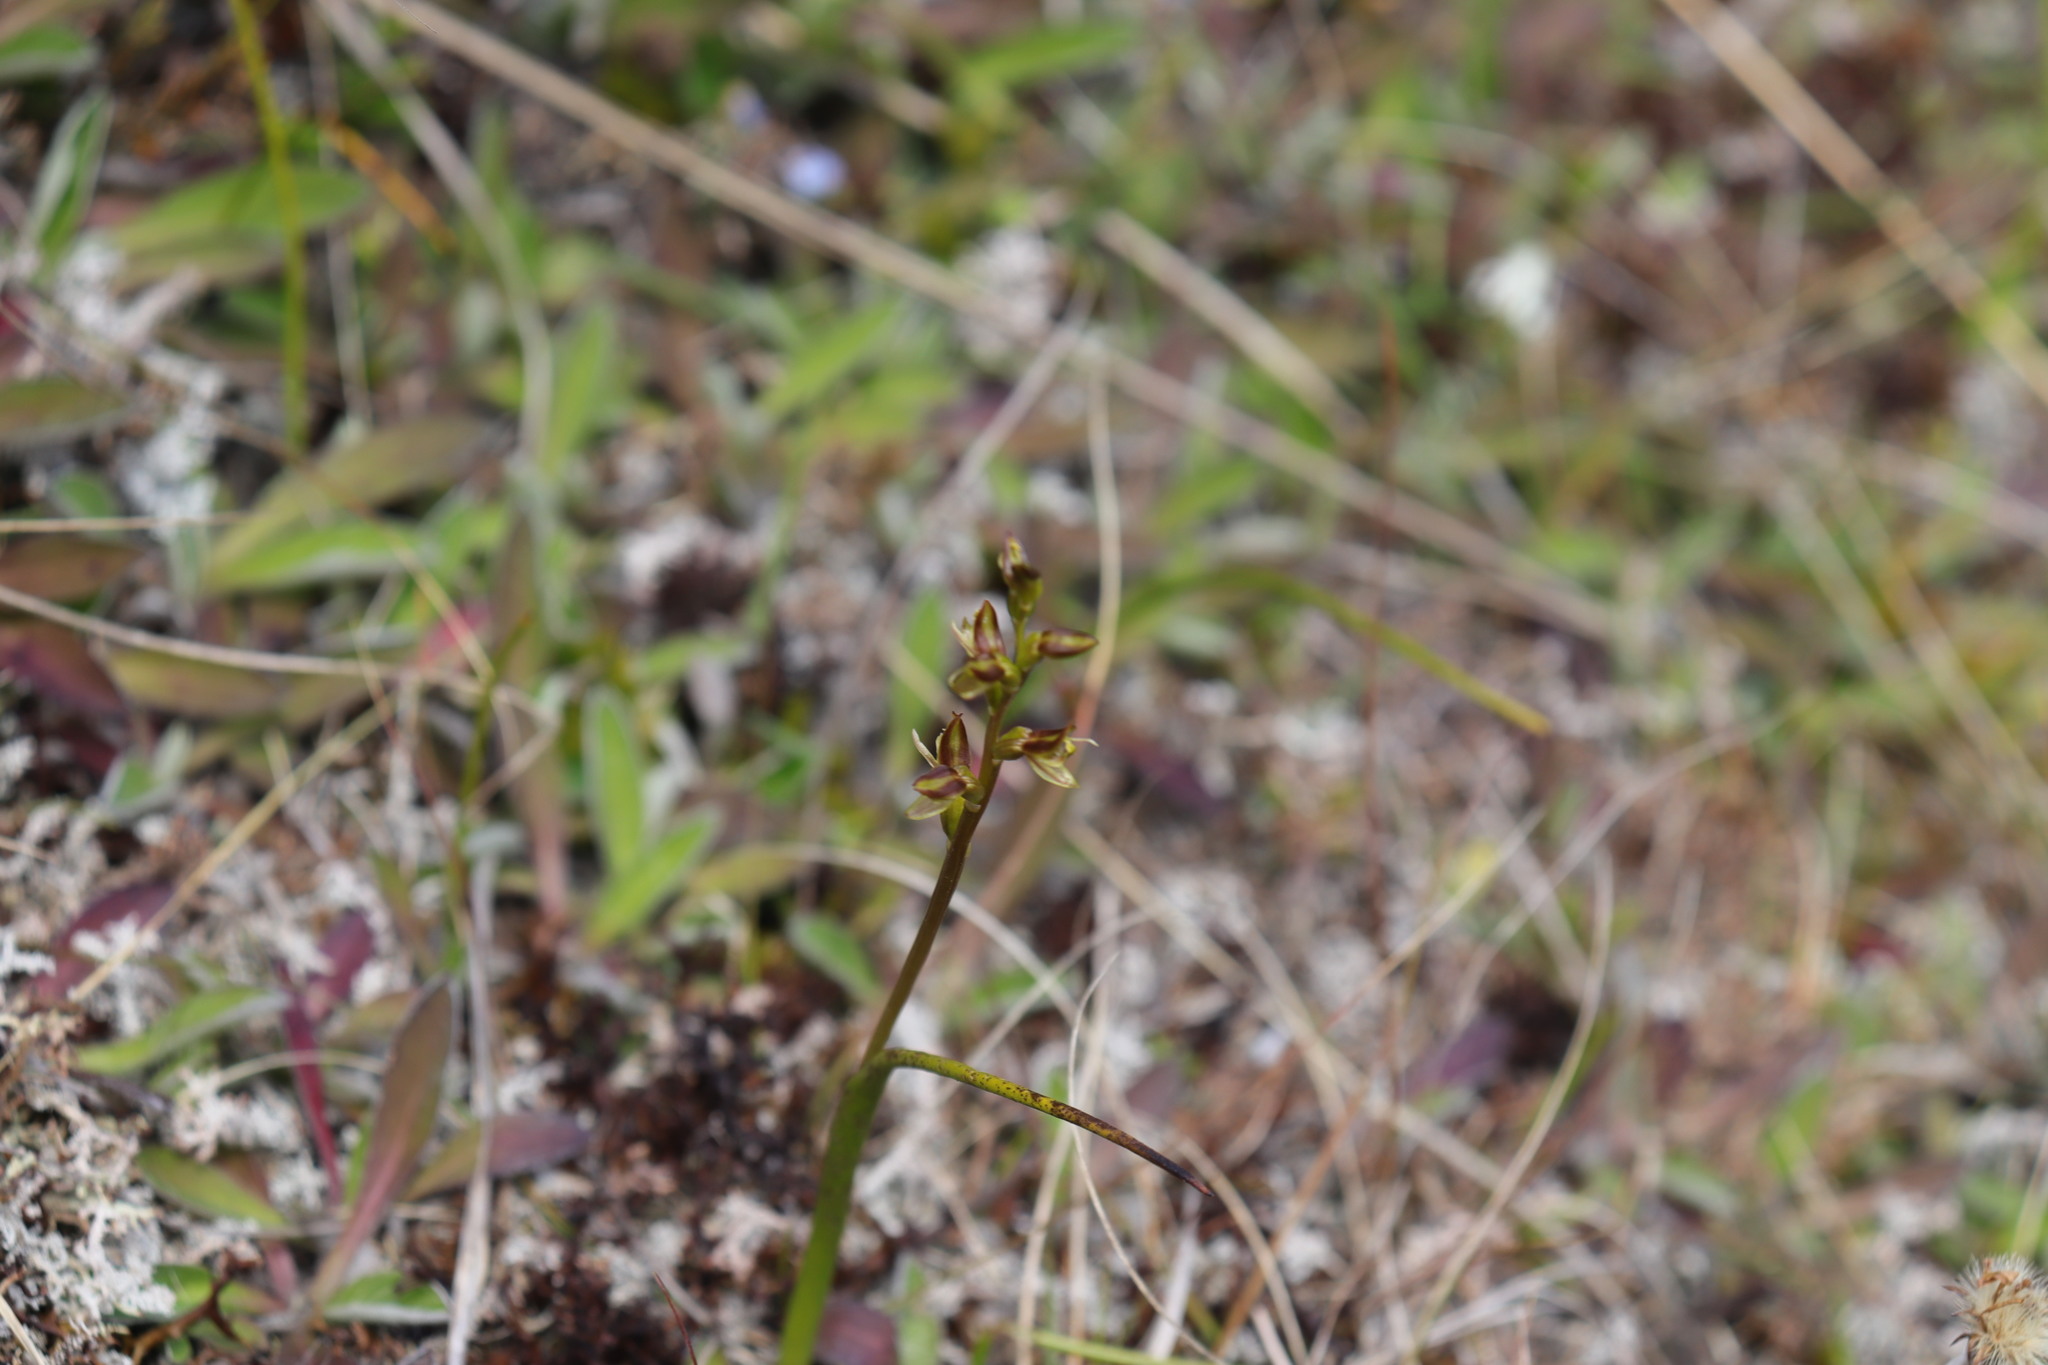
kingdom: Plantae
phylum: Tracheophyta
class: Liliopsida
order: Asparagales
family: Orchidaceae
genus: Prasophyllum
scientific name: Prasophyllum colensoi
